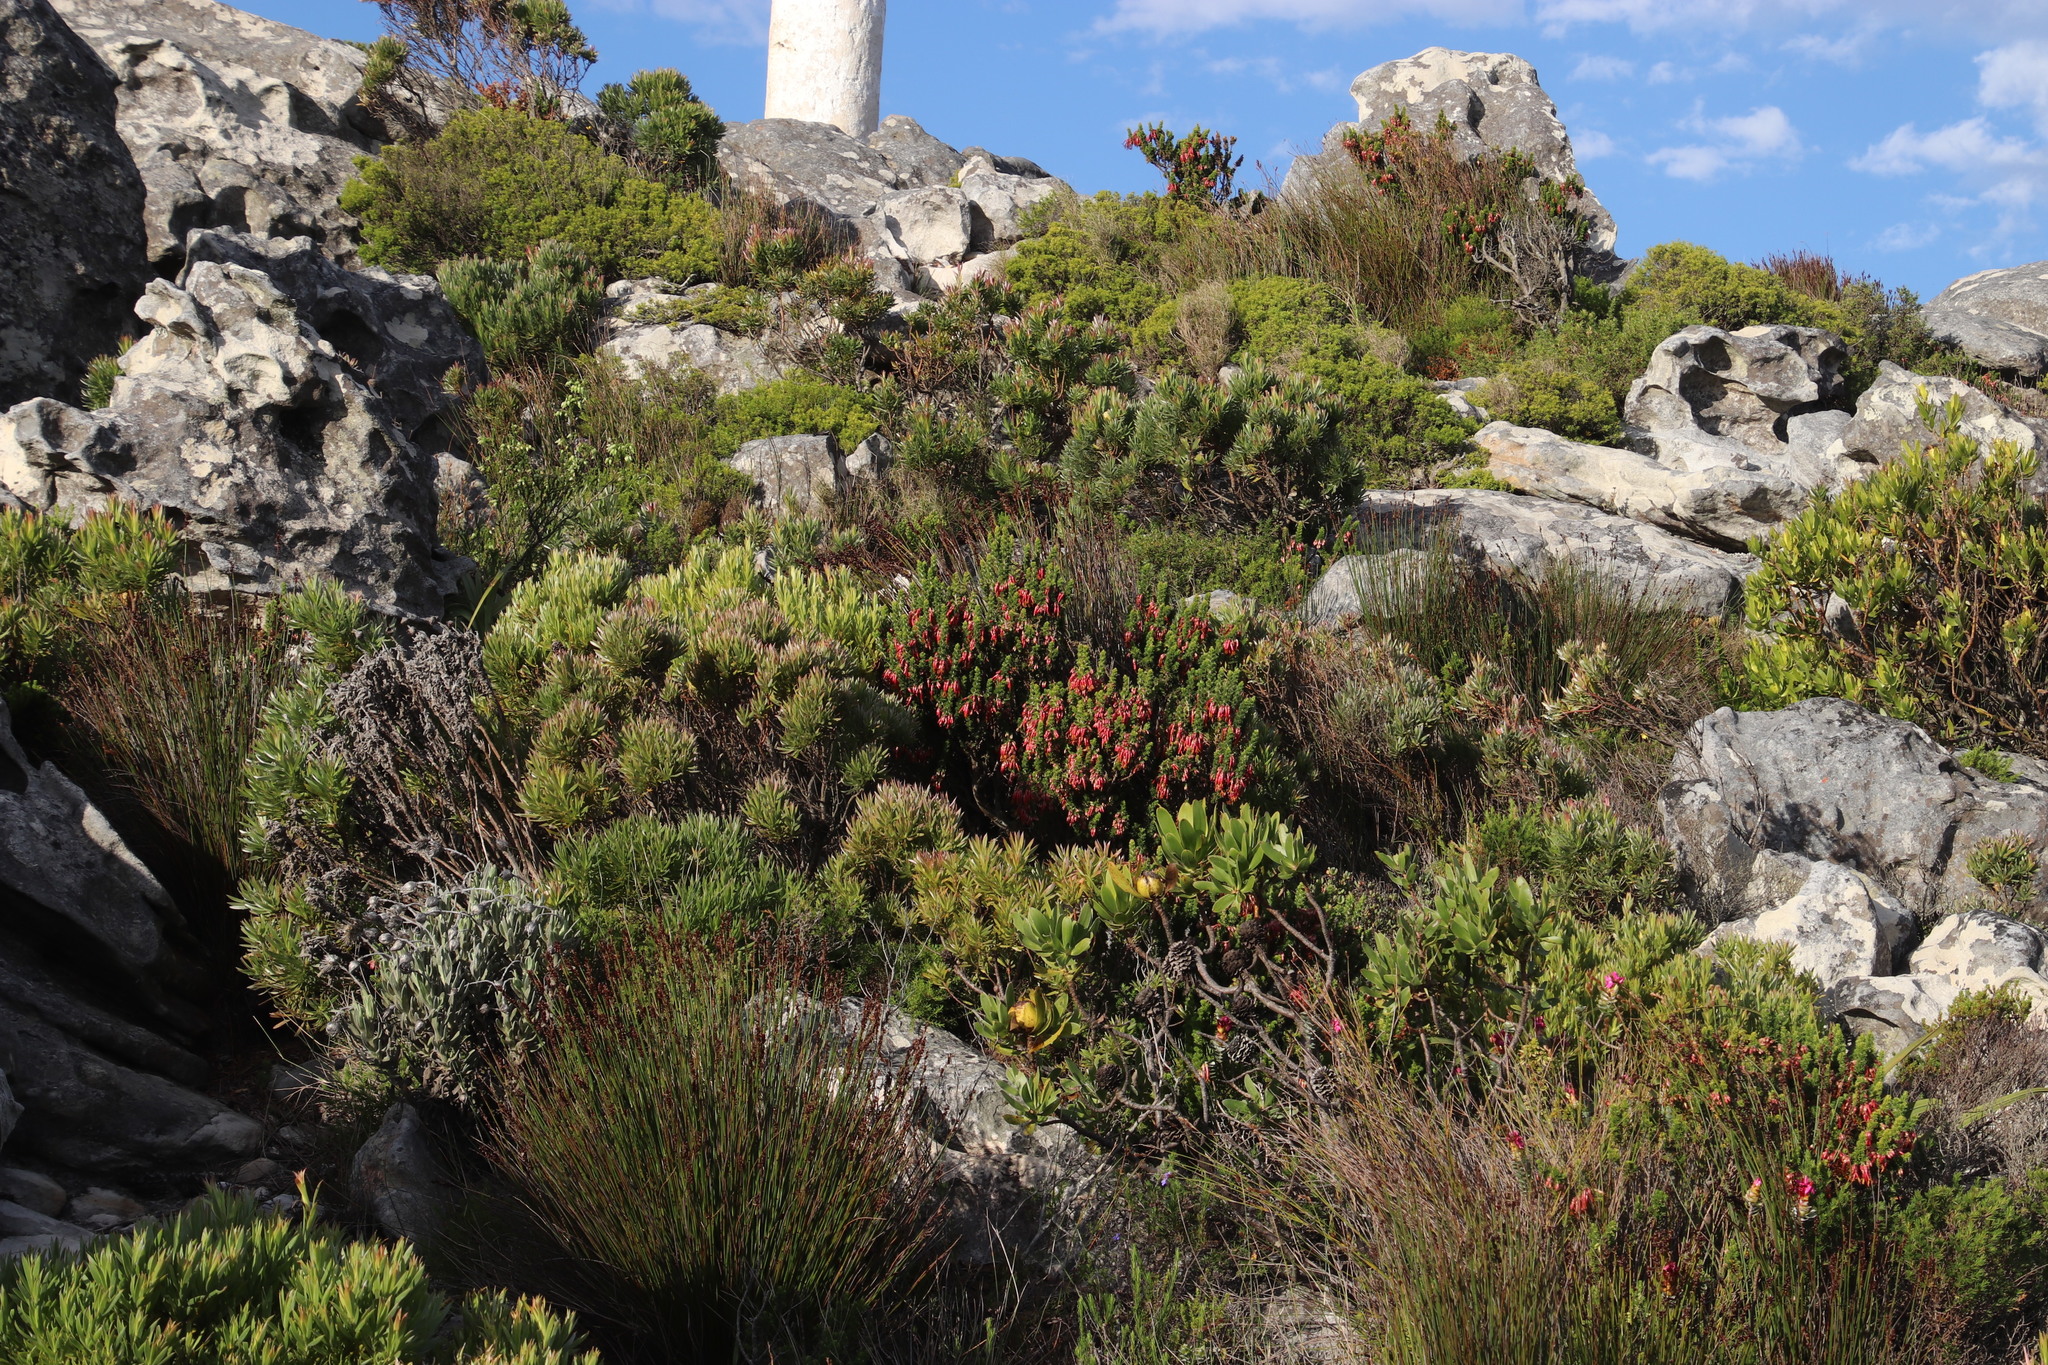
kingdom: Plantae
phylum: Tracheophyta
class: Magnoliopsida
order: Proteales
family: Proteaceae
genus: Leucadendron
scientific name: Leucadendron xanthoconus
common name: Sickle-leaf conebush
